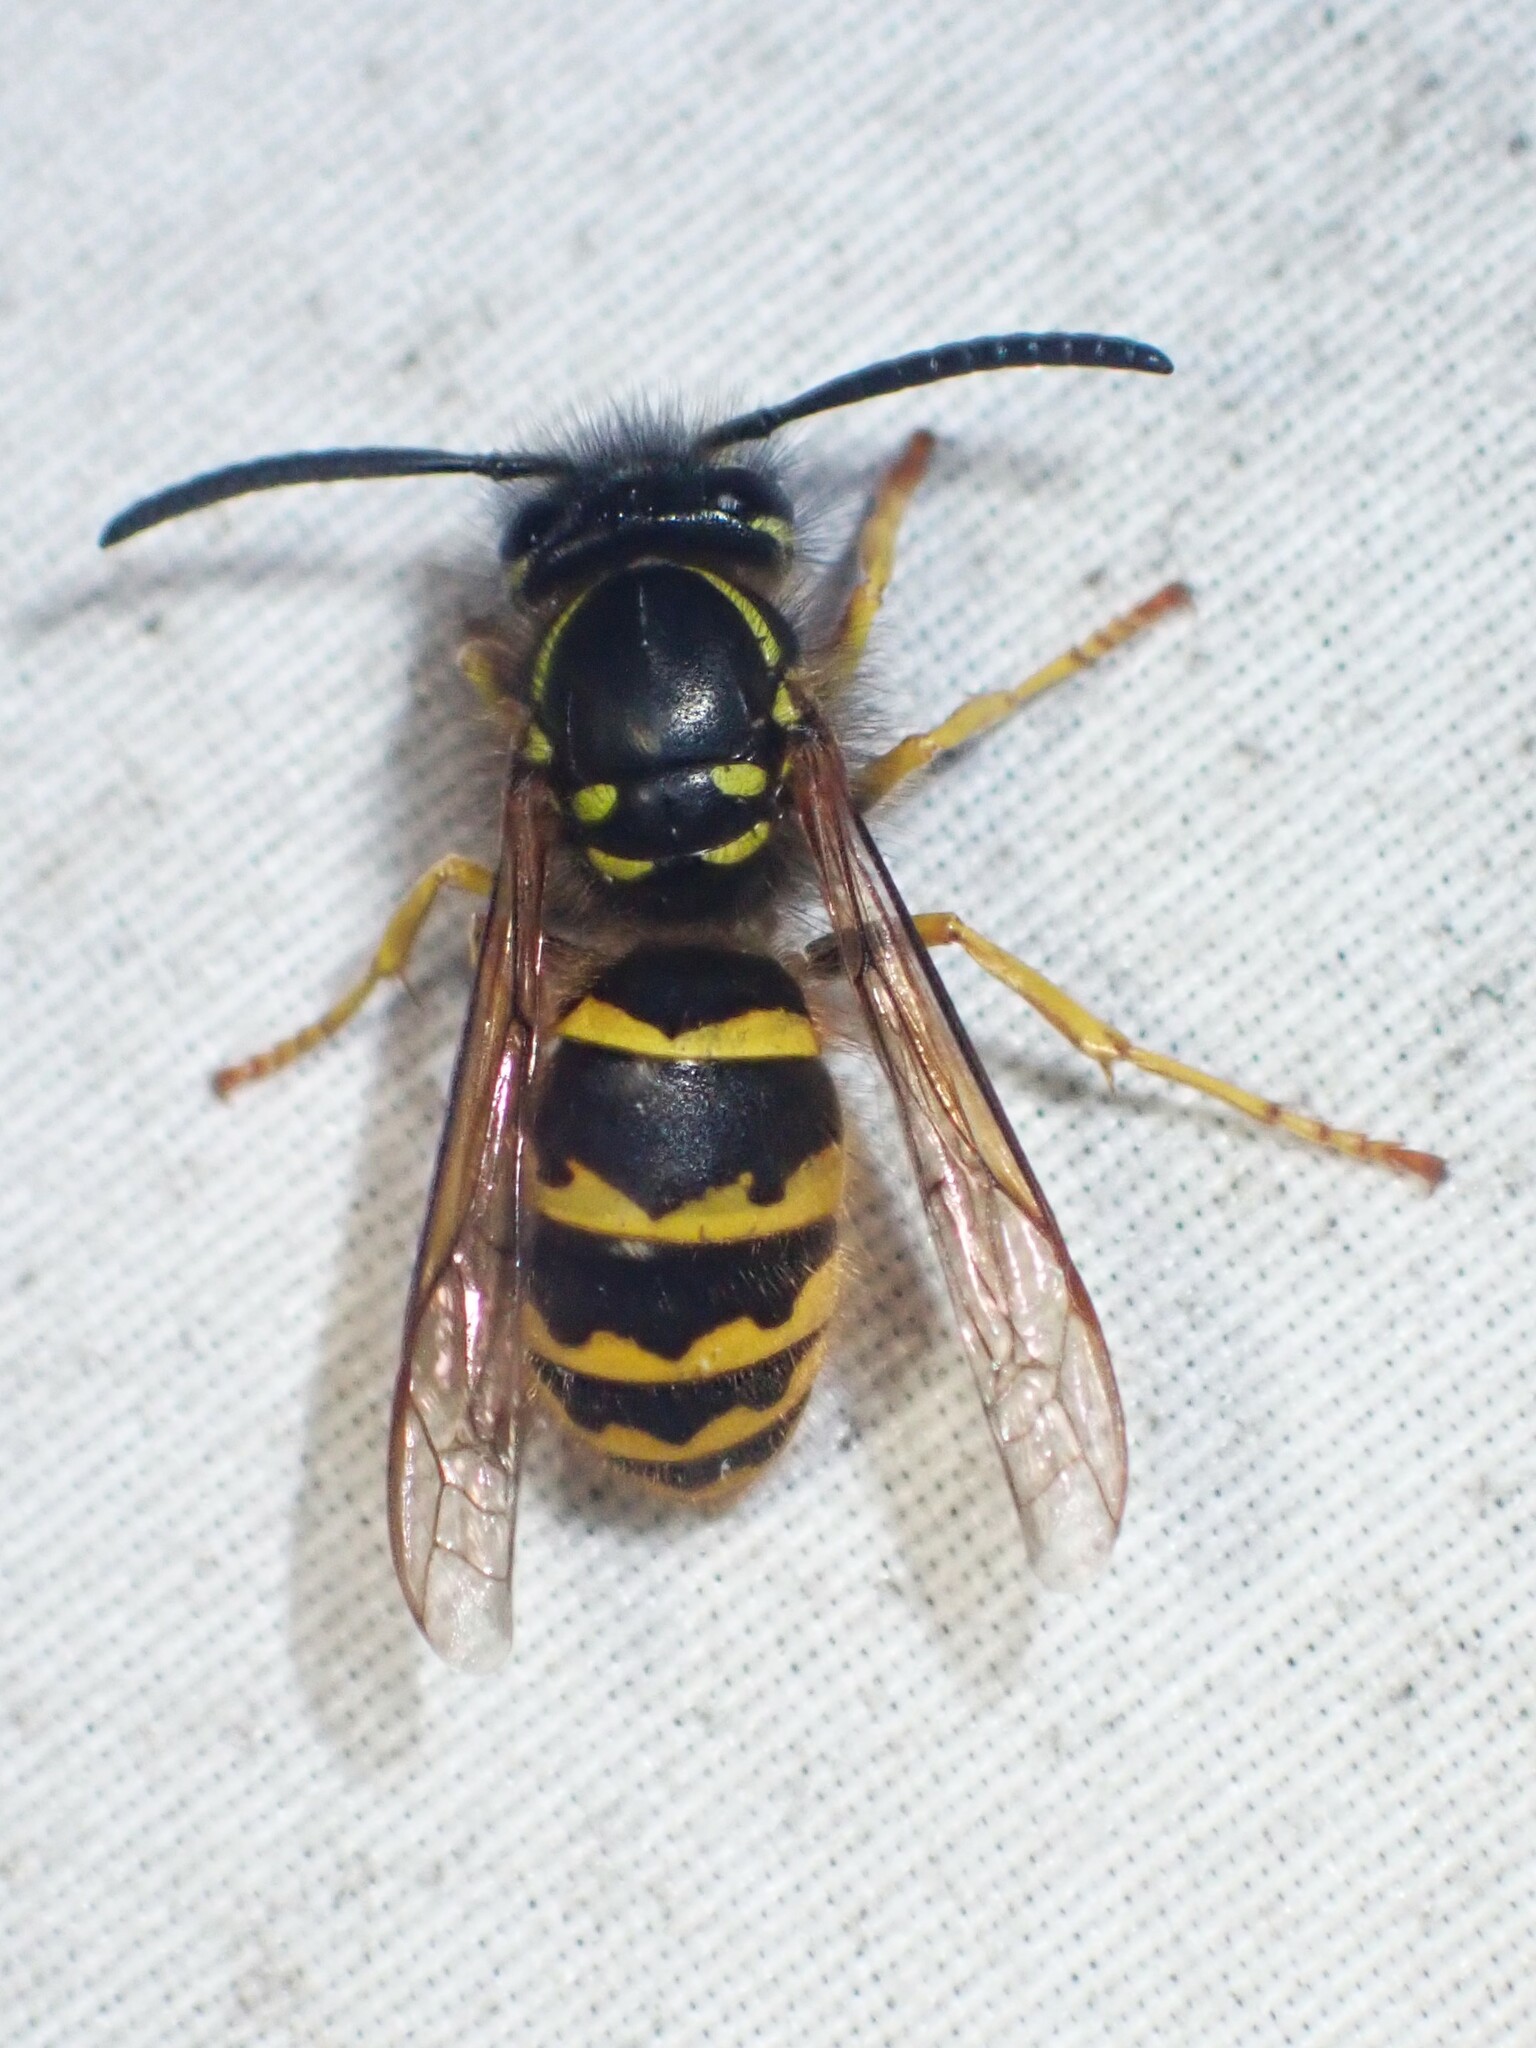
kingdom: Animalia
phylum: Arthropoda
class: Insecta
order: Hymenoptera
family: Vespidae
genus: Vespula
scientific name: Vespula alascensis
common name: Alaska yellowjacket
